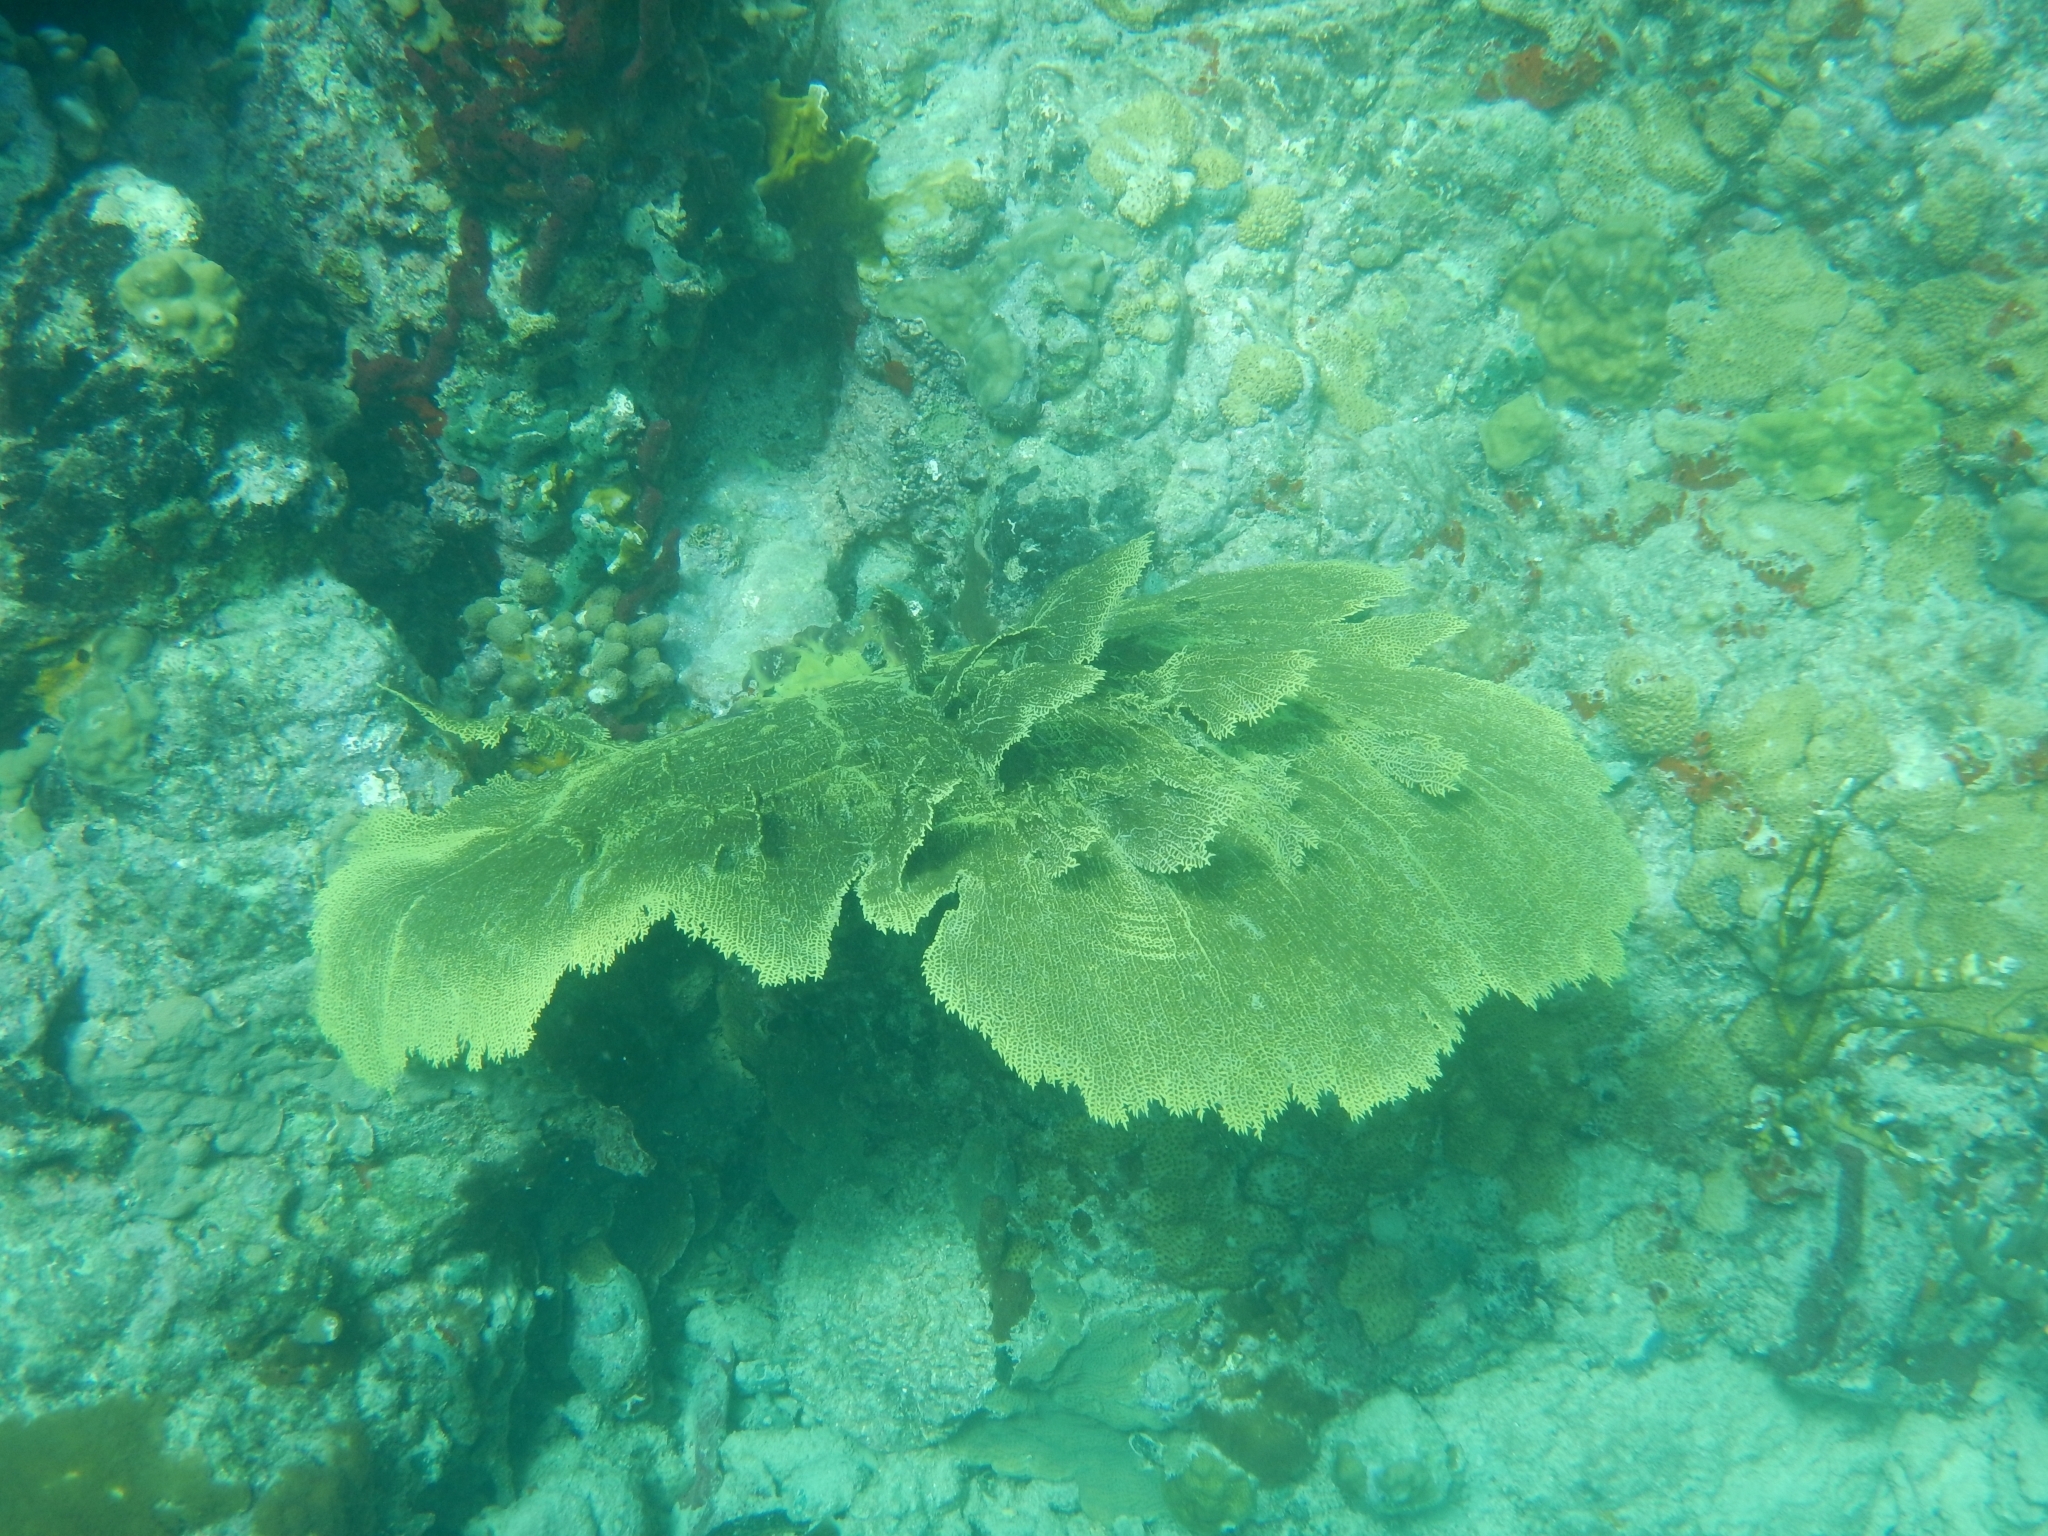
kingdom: Animalia
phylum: Cnidaria
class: Anthozoa
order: Malacalcyonacea
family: Gorgoniidae
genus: Gorgonia
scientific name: Gorgonia ventalina
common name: Common sea fan
